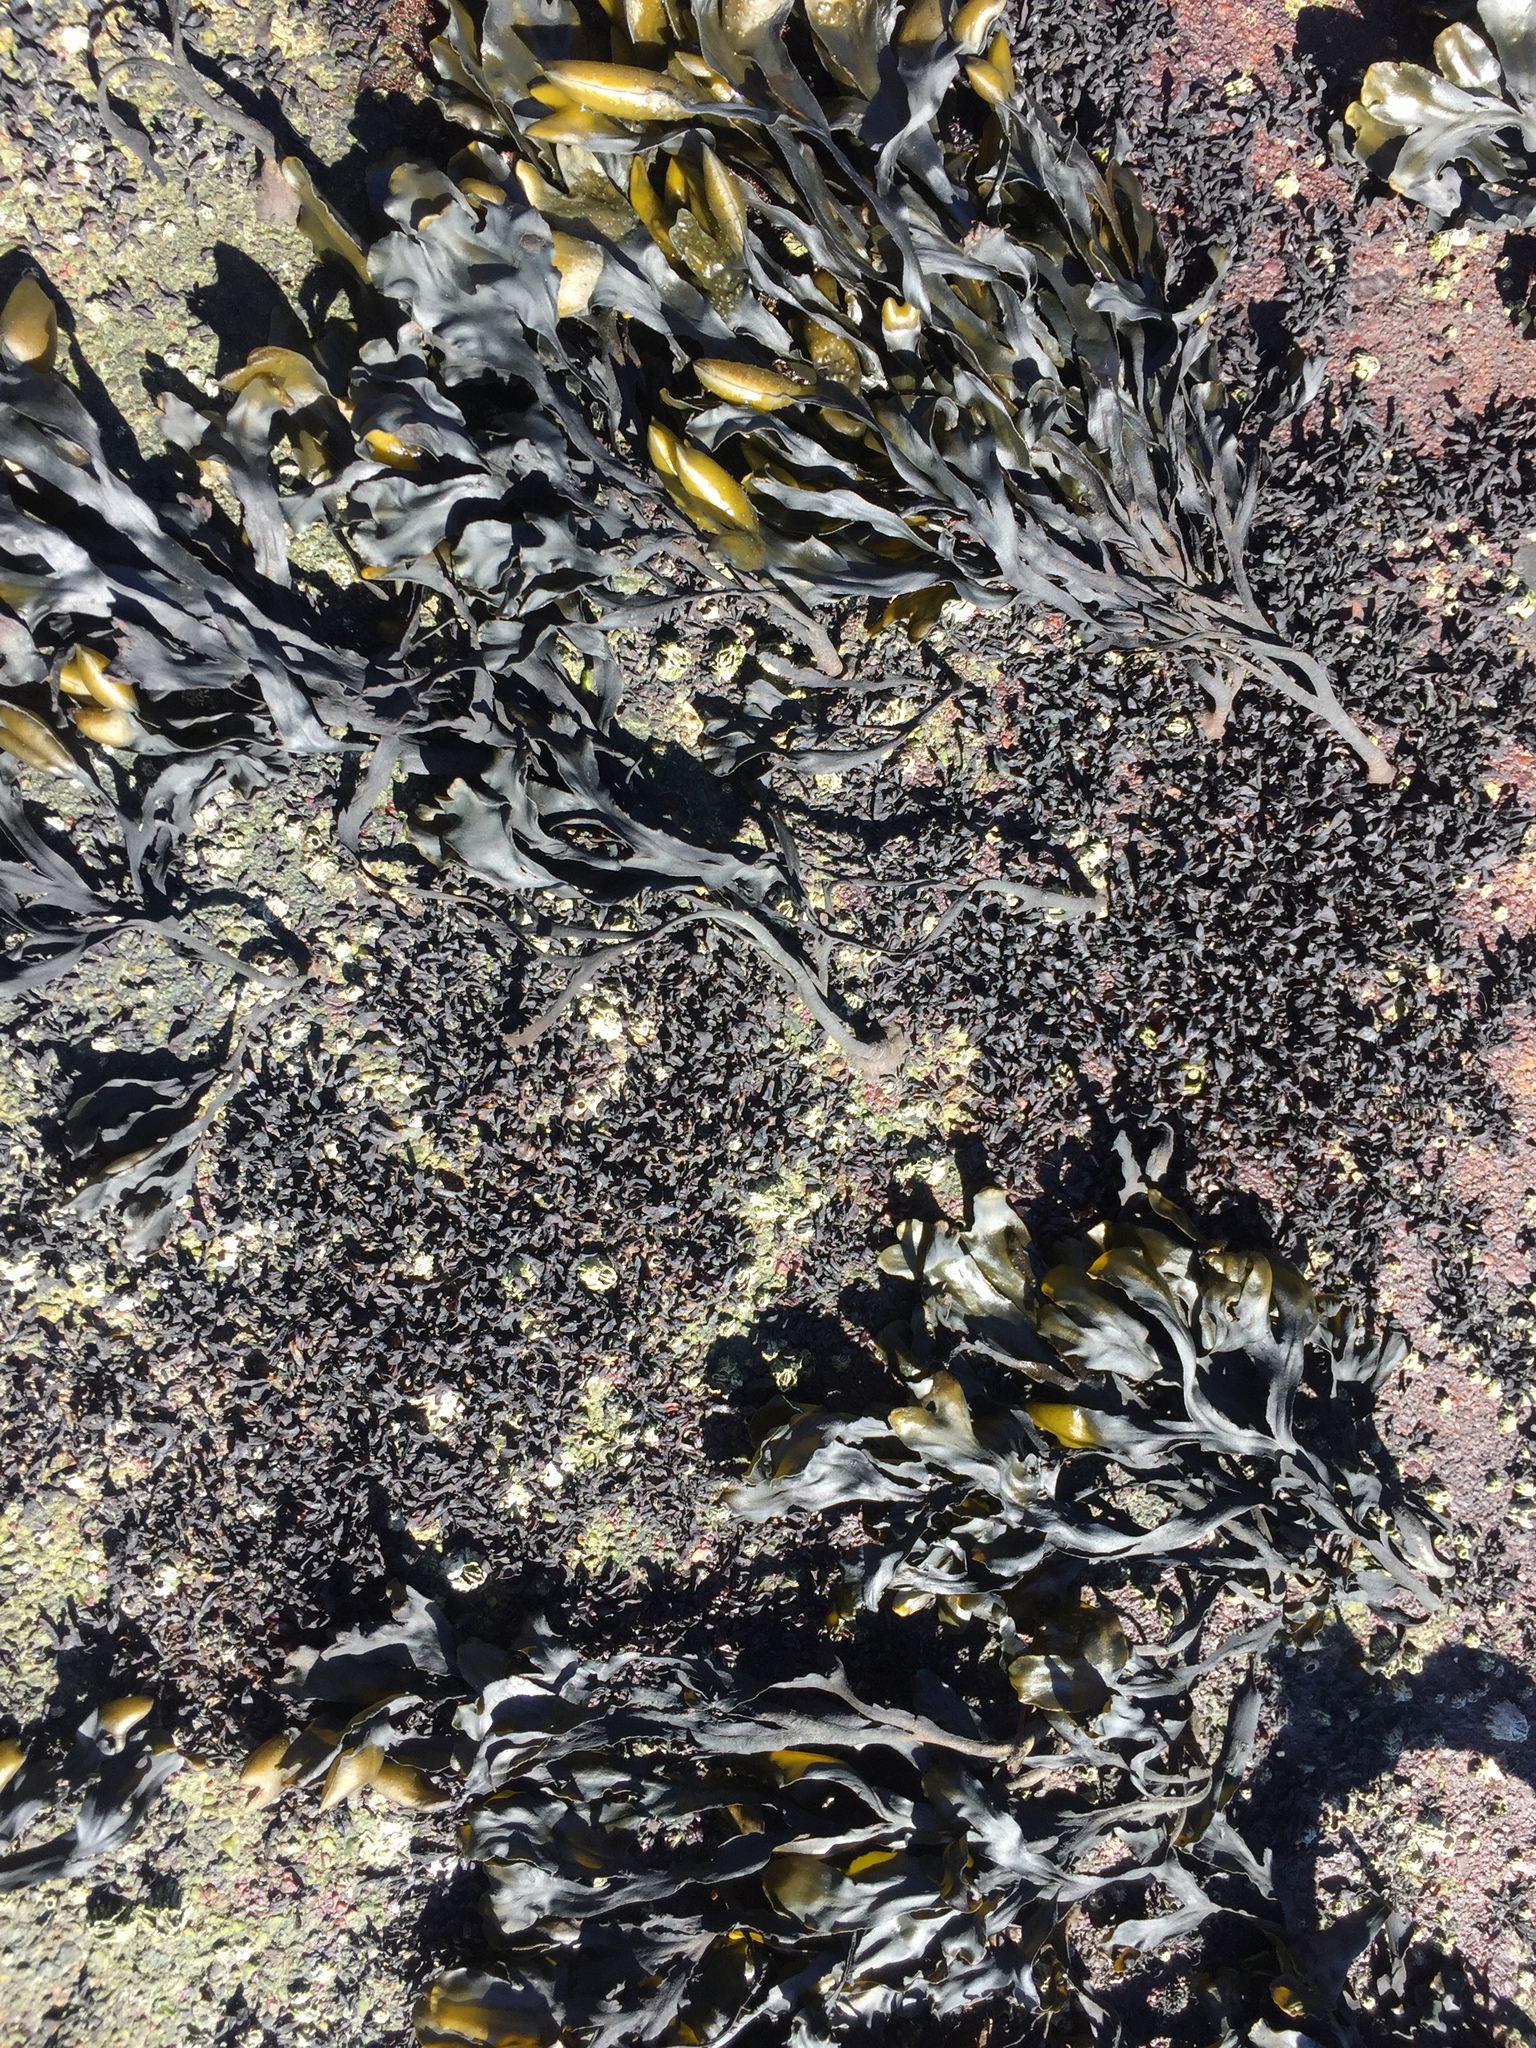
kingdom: Chromista
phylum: Ochrophyta
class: Phaeophyceae
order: Fucales
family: Fucaceae
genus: Fucus
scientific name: Fucus distichus
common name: Rockweed
